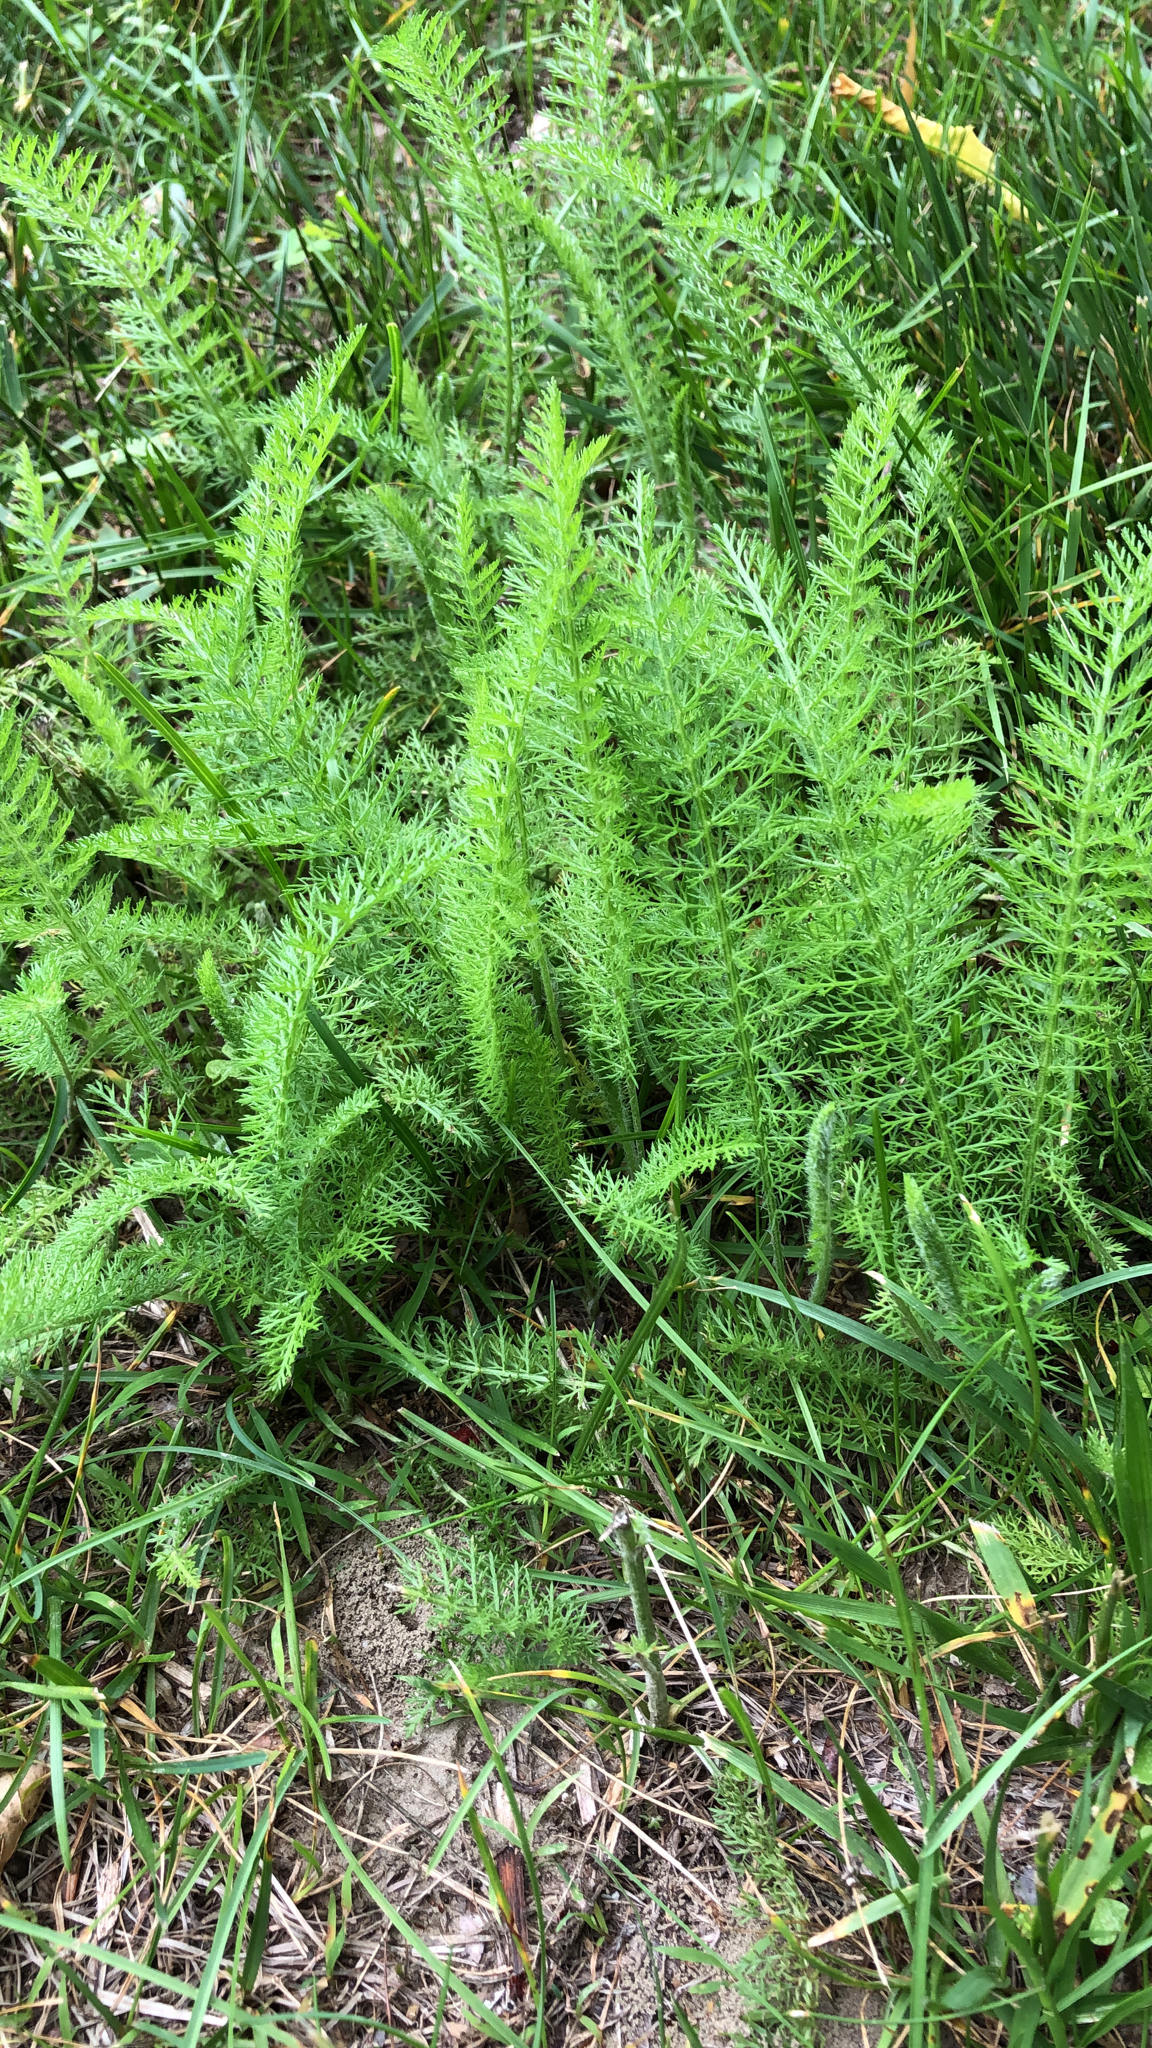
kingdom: Plantae
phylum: Tracheophyta
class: Magnoliopsida
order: Asterales
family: Asteraceae
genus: Achillea
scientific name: Achillea millefolium
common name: Yarrow
